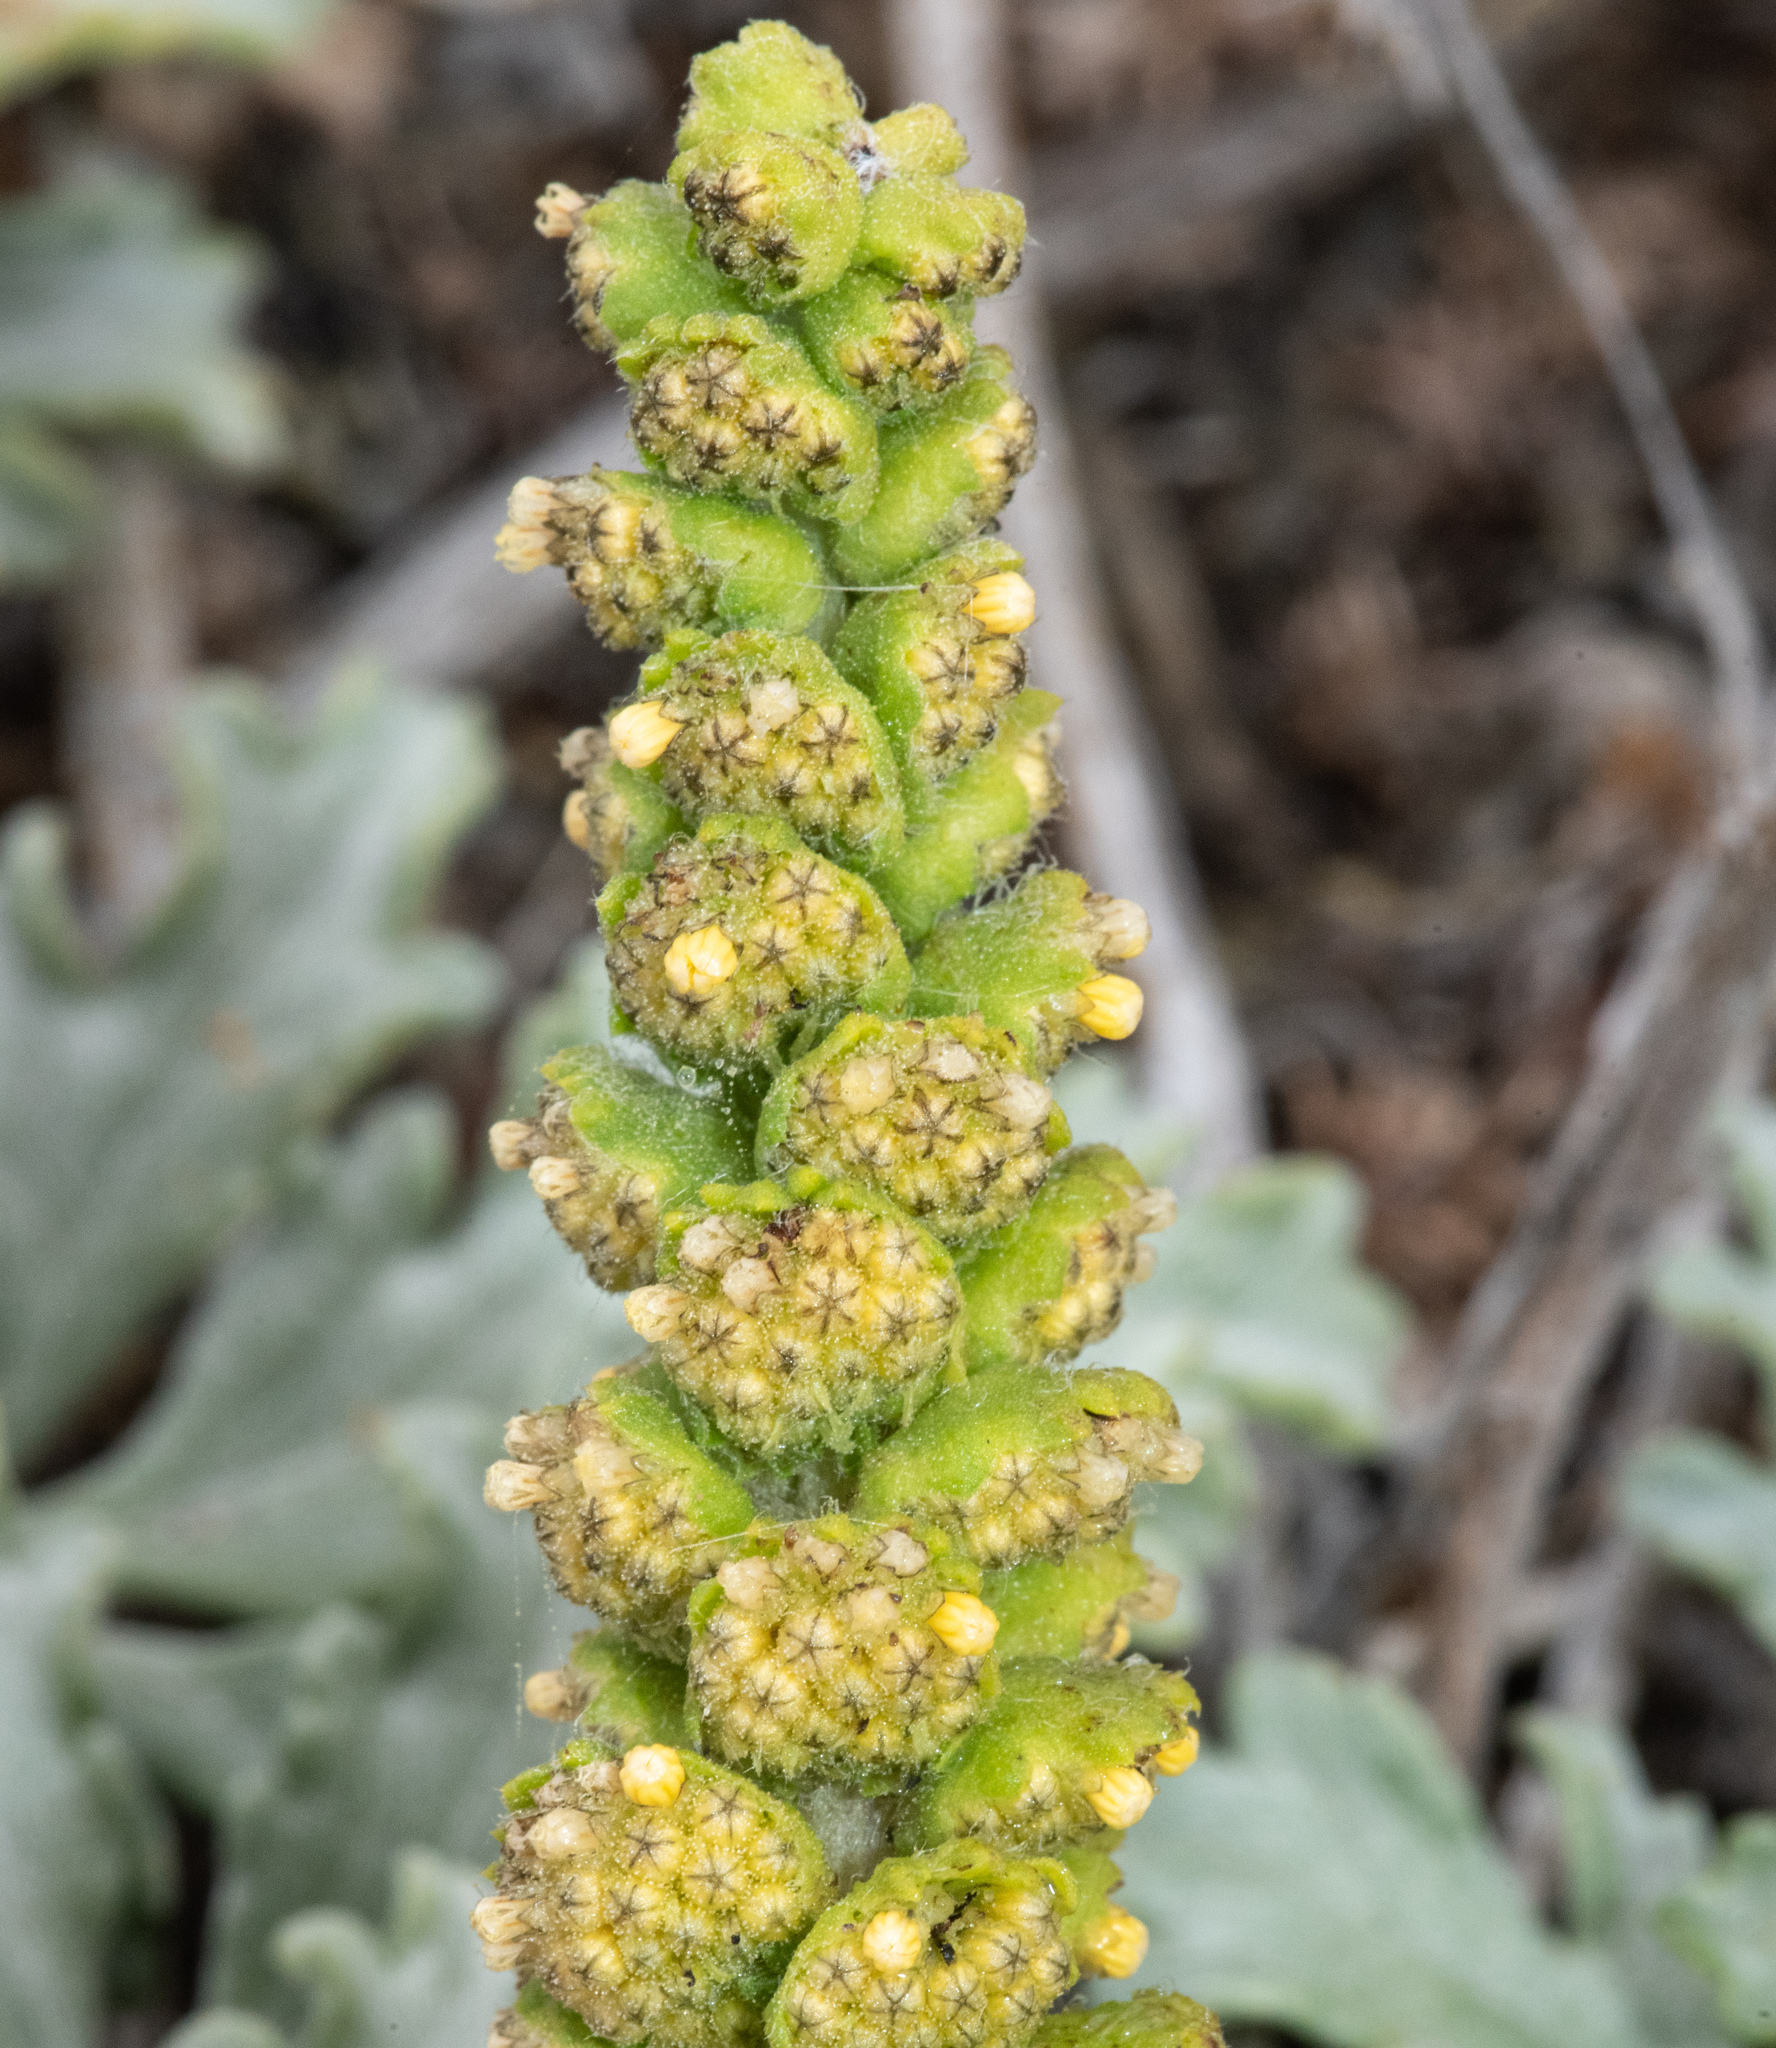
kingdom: Plantae
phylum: Tracheophyta
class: Magnoliopsida
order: Asterales
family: Asteraceae
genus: Ambrosia
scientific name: Ambrosia chamissonis
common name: Beachbur
